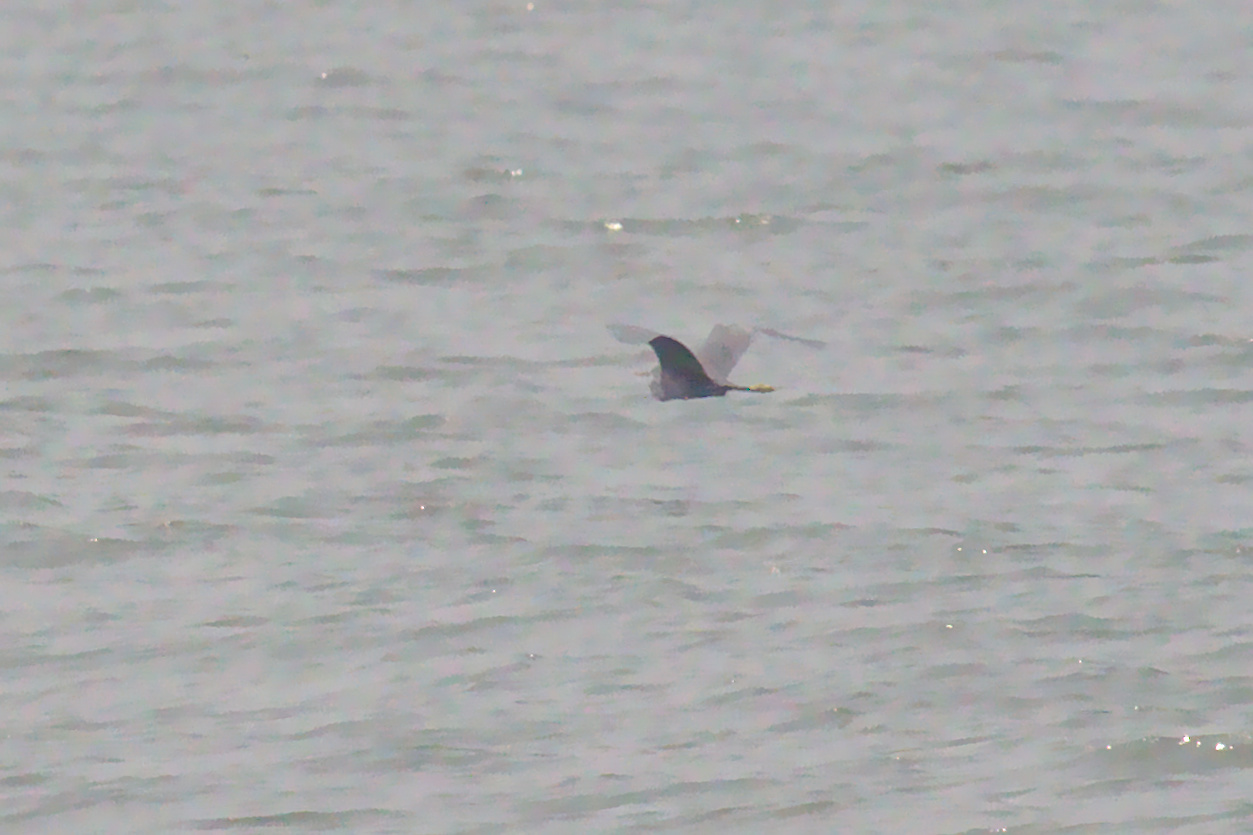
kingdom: Animalia
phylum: Chordata
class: Aves
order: Pelecaniformes
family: Ardeidae
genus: Egretta
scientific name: Egretta gularis
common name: Western reef-heron
